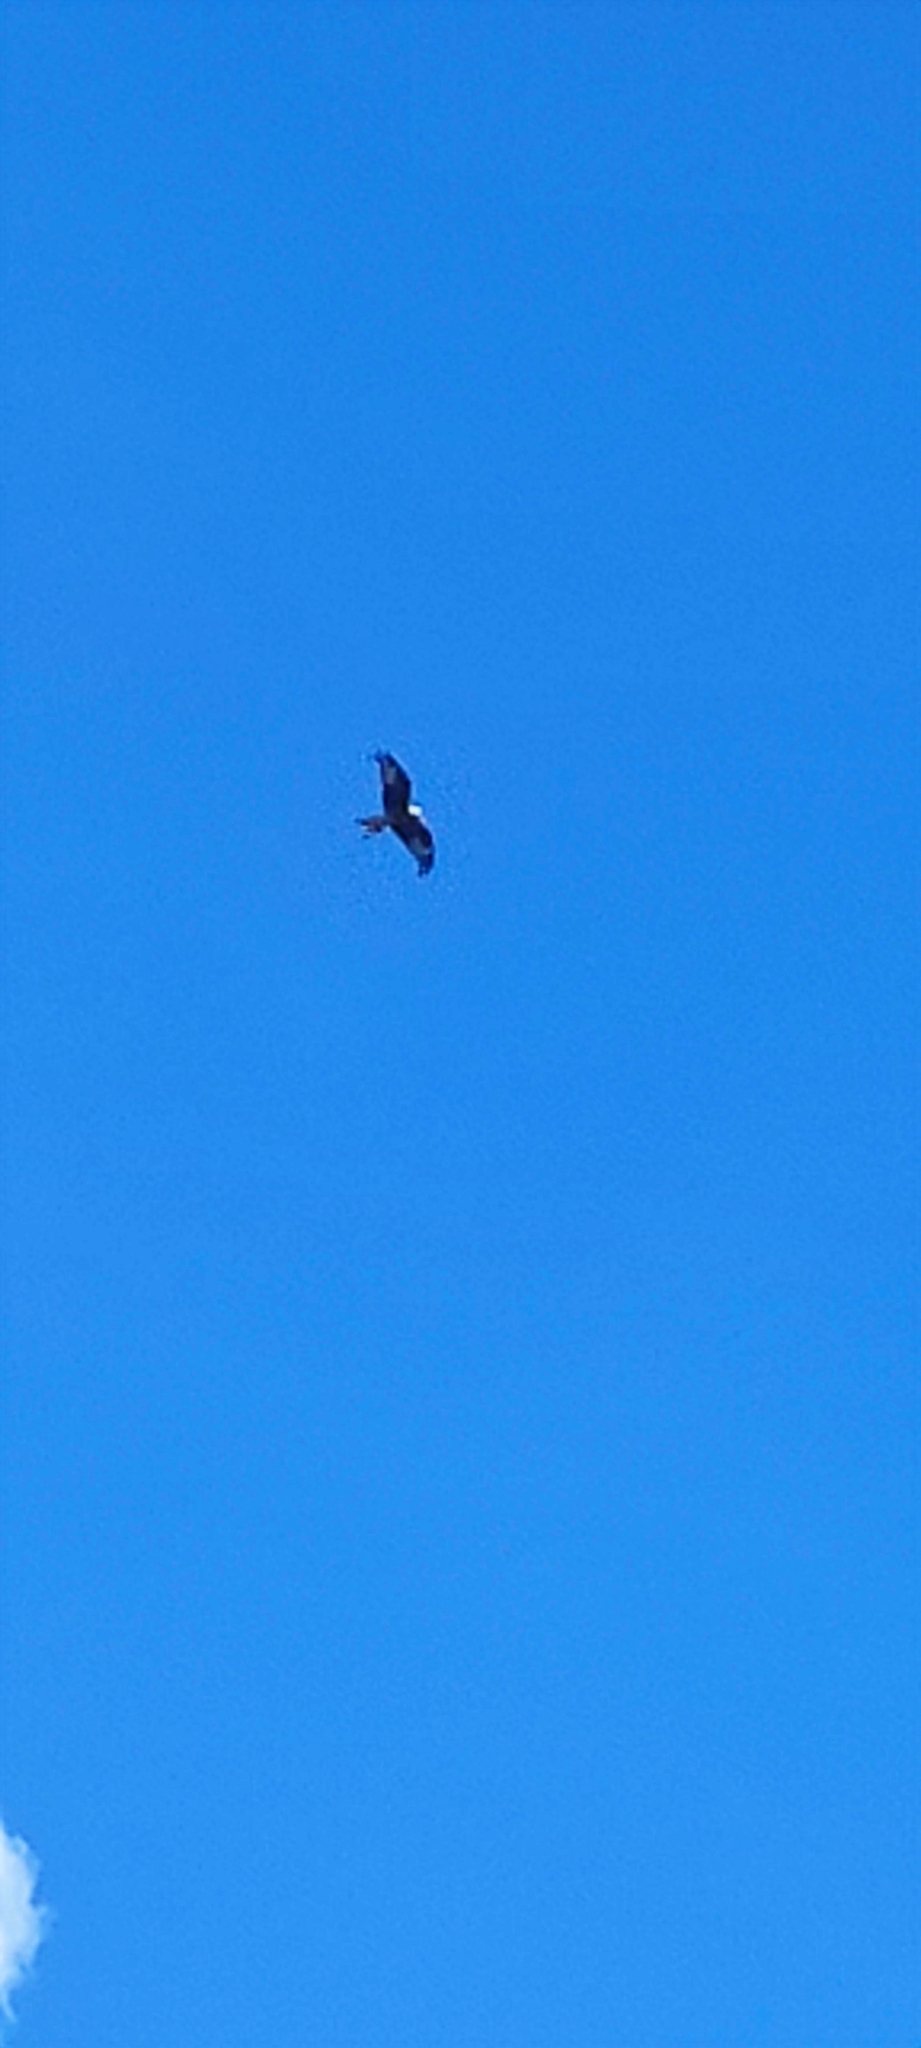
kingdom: Animalia
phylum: Chordata
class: Aves
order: Accipitriformes
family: Accipitridae
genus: Milvus
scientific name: Milvus milvus
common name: Red kite
